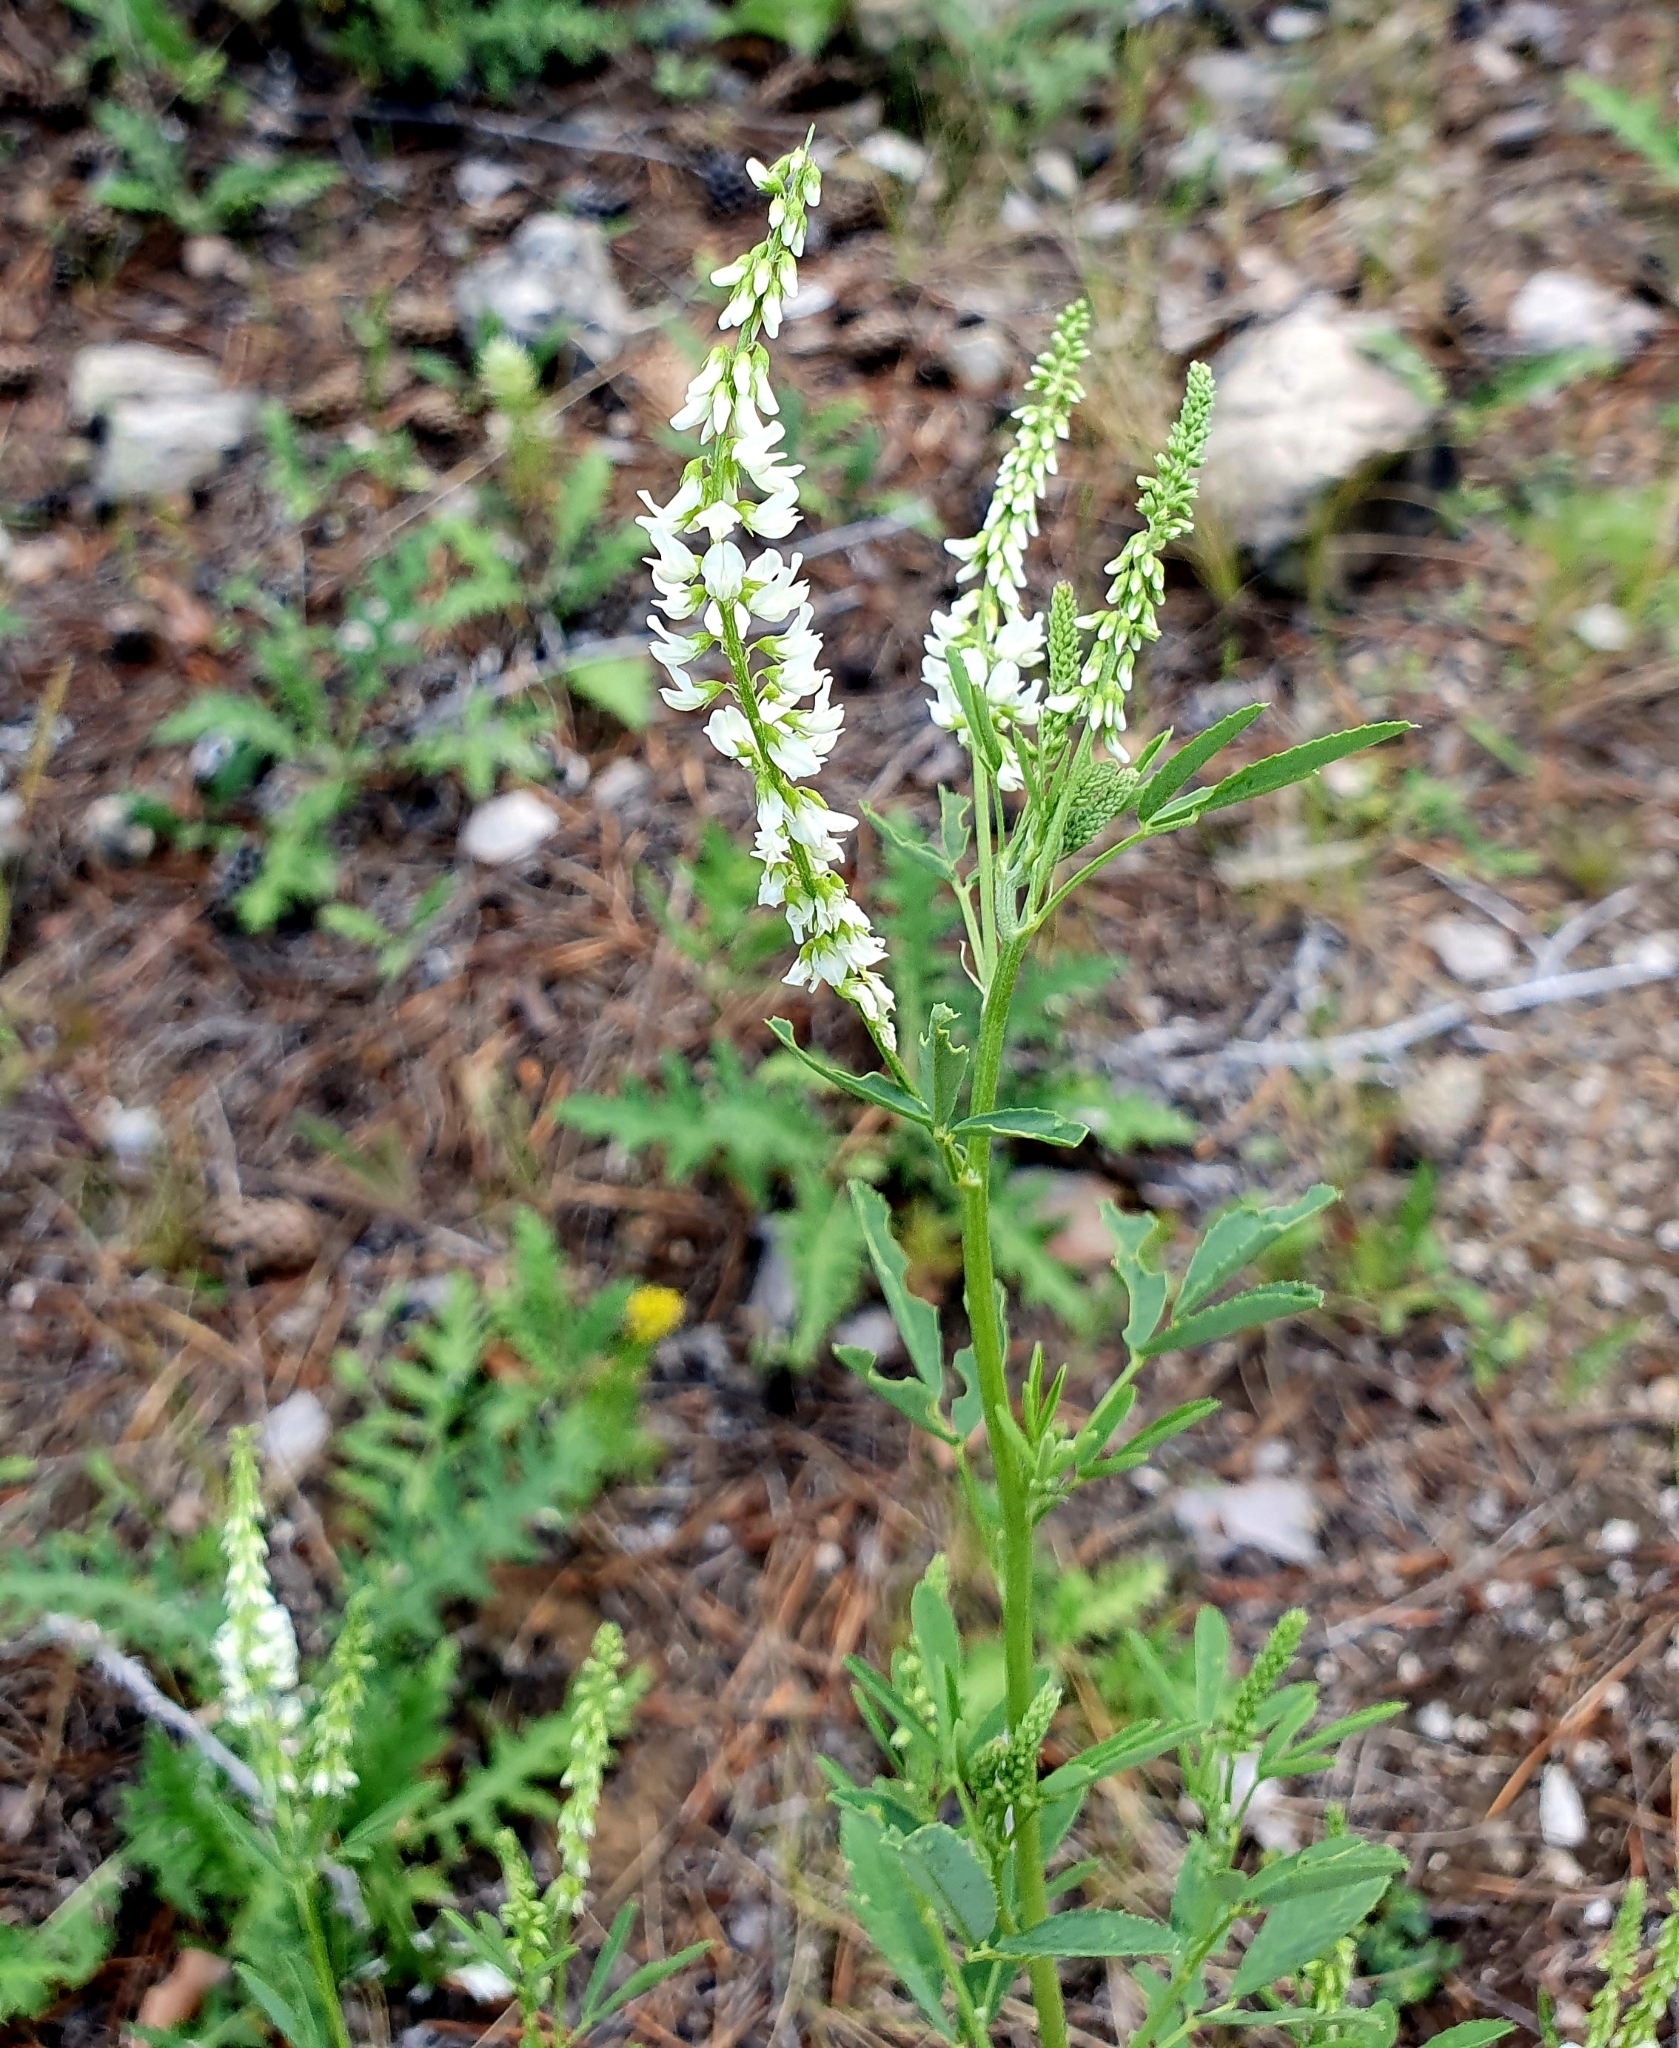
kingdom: Plantae
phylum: Tracheophyta
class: Magnoliopsida
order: Fabales
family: Fabaceae
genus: Melilotus
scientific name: Melilotus albus
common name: White melilot
